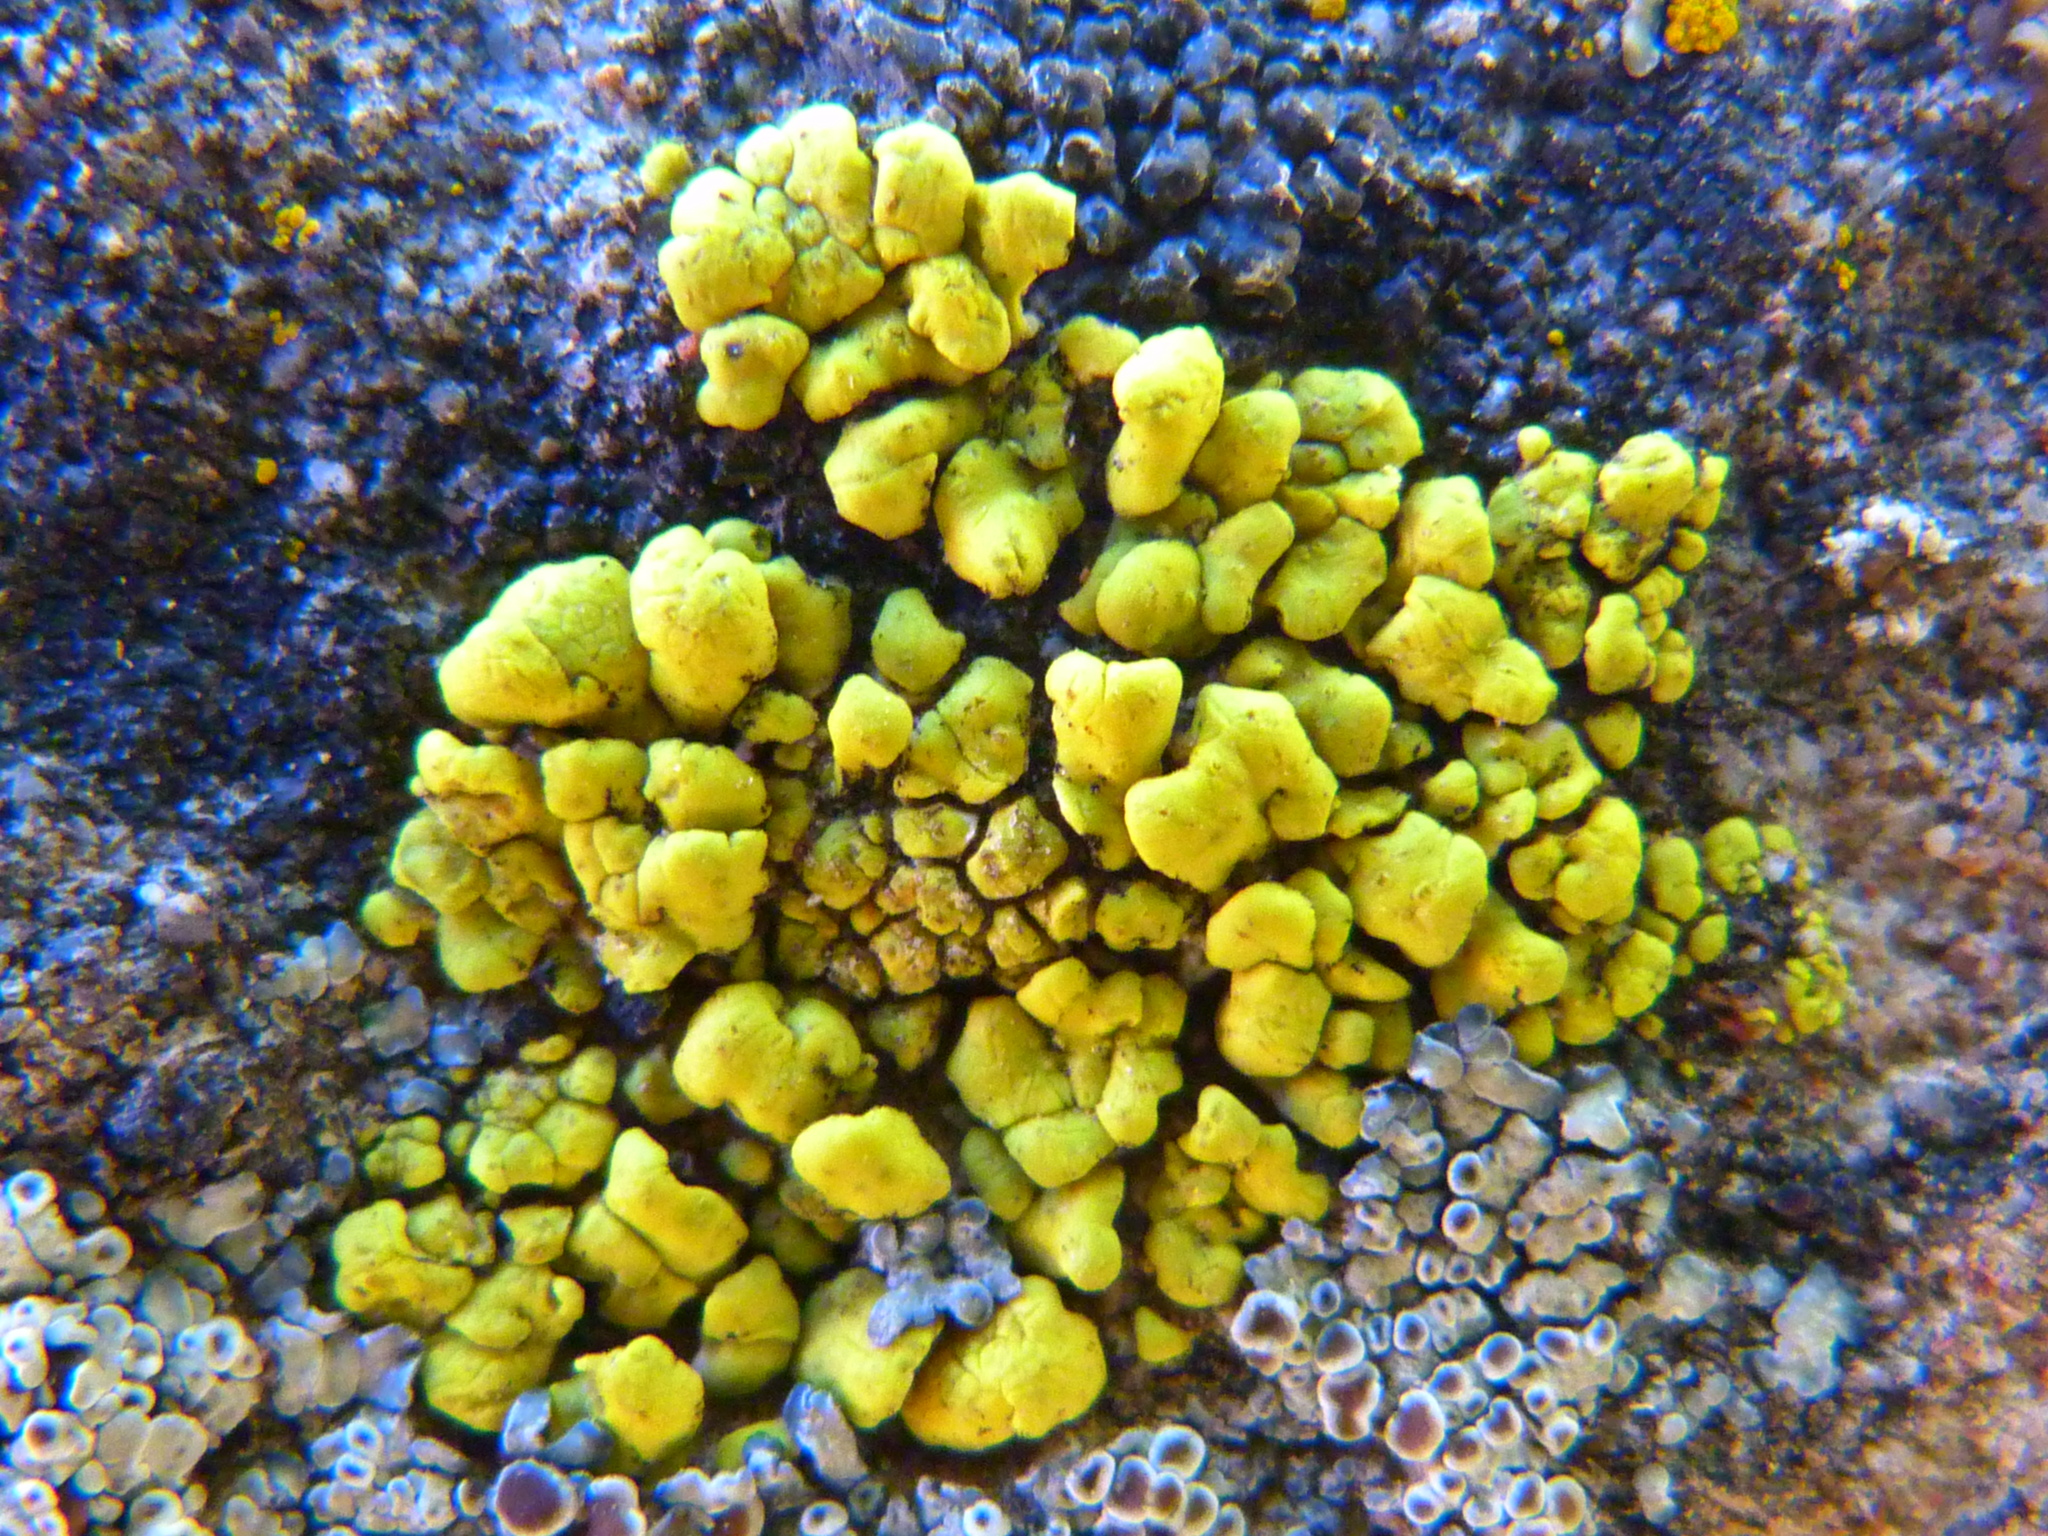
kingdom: Fungi
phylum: Ascomycota
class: Lecanoromycetes
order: Acarosporales
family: Acarosporaceae
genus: Acarospora
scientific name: Acarospora socialis
